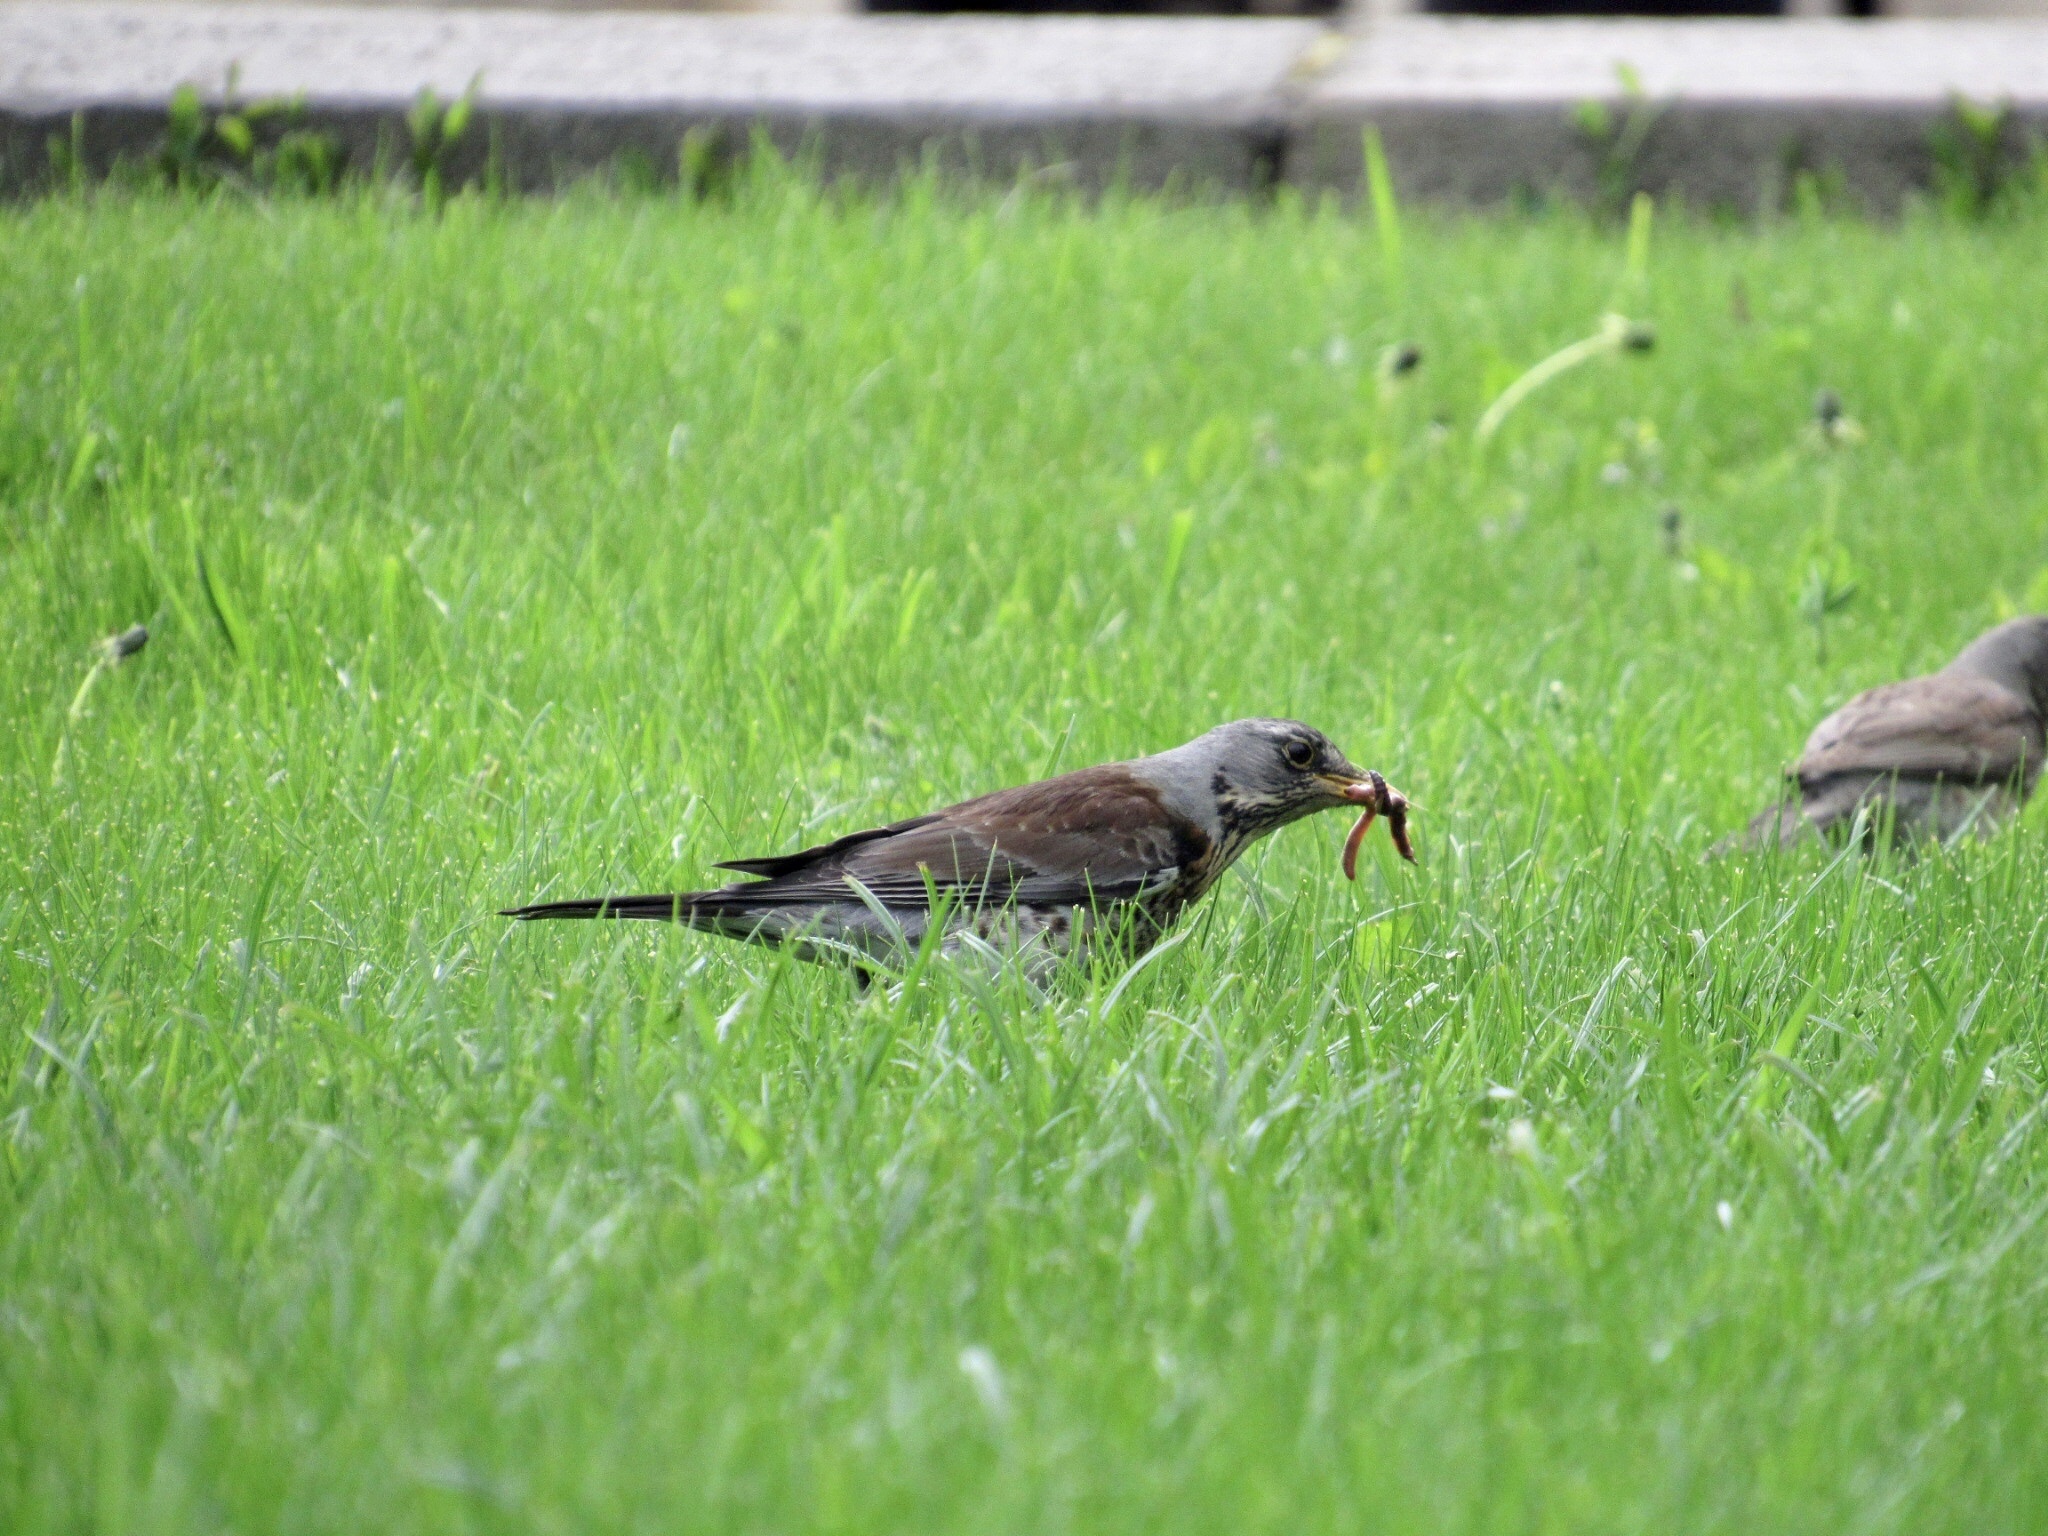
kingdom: Animalia
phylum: Chordata
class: Aves
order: Passeriformes
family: Turdidae
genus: Turdus
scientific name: Turdus pilaris
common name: Fieldfare
